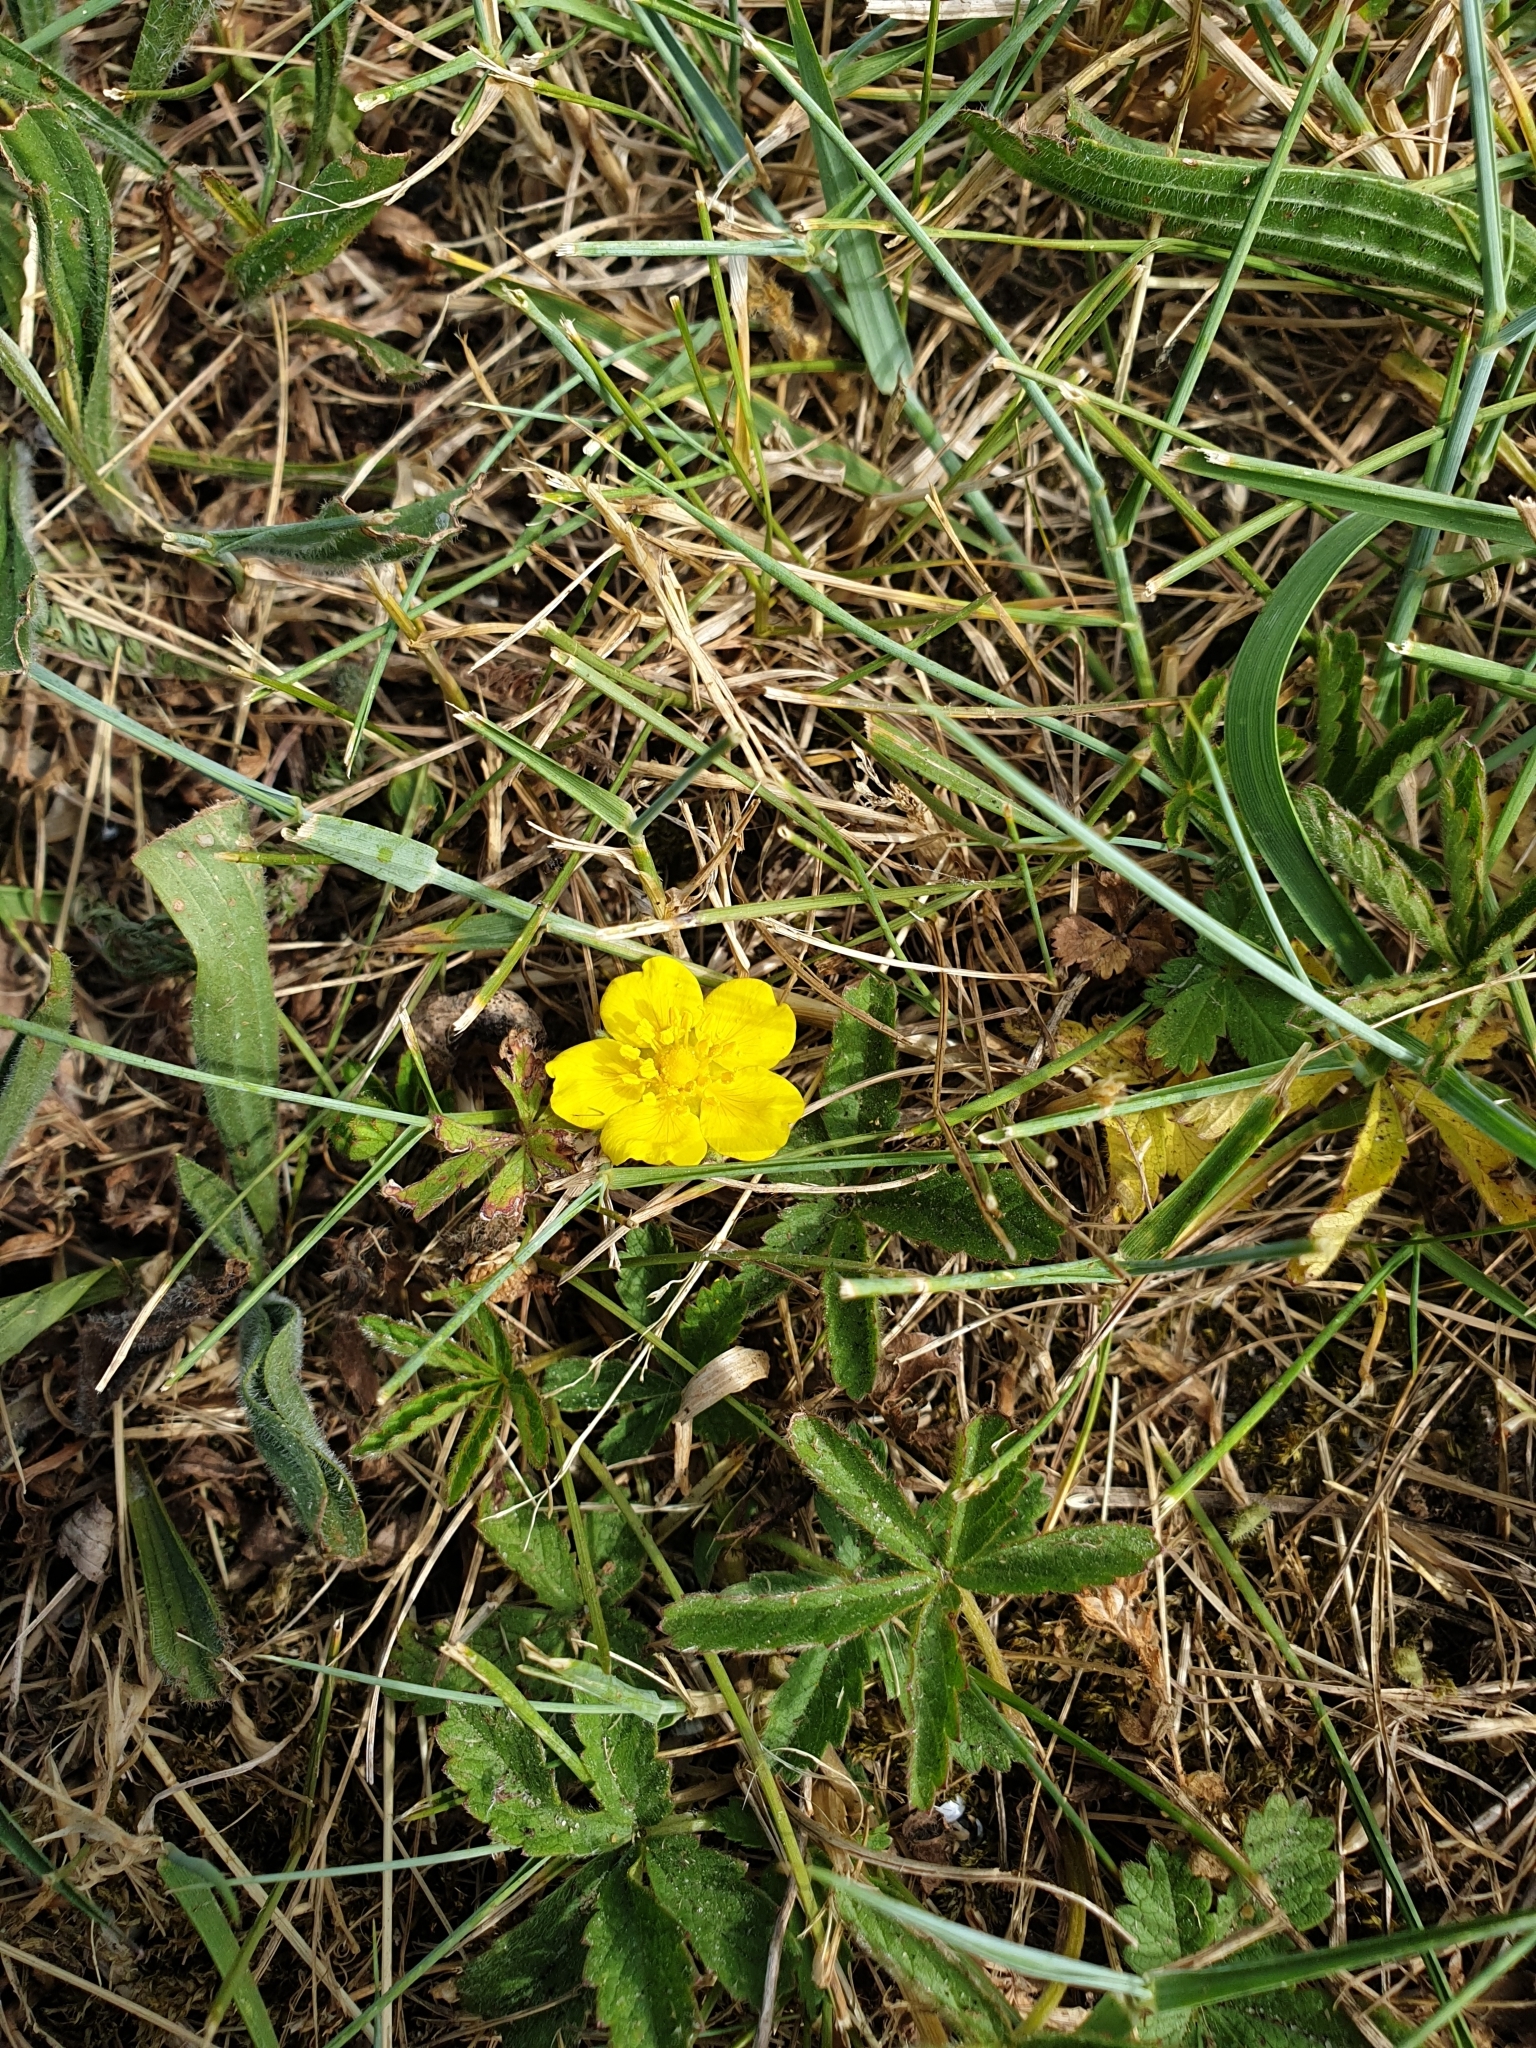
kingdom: Plantae
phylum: Tracheophyta
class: Magnoliopsida
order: Rosales
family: Rosaceae
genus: Potentilla
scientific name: Potentilla reptans
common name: Creeping cinquefoil
